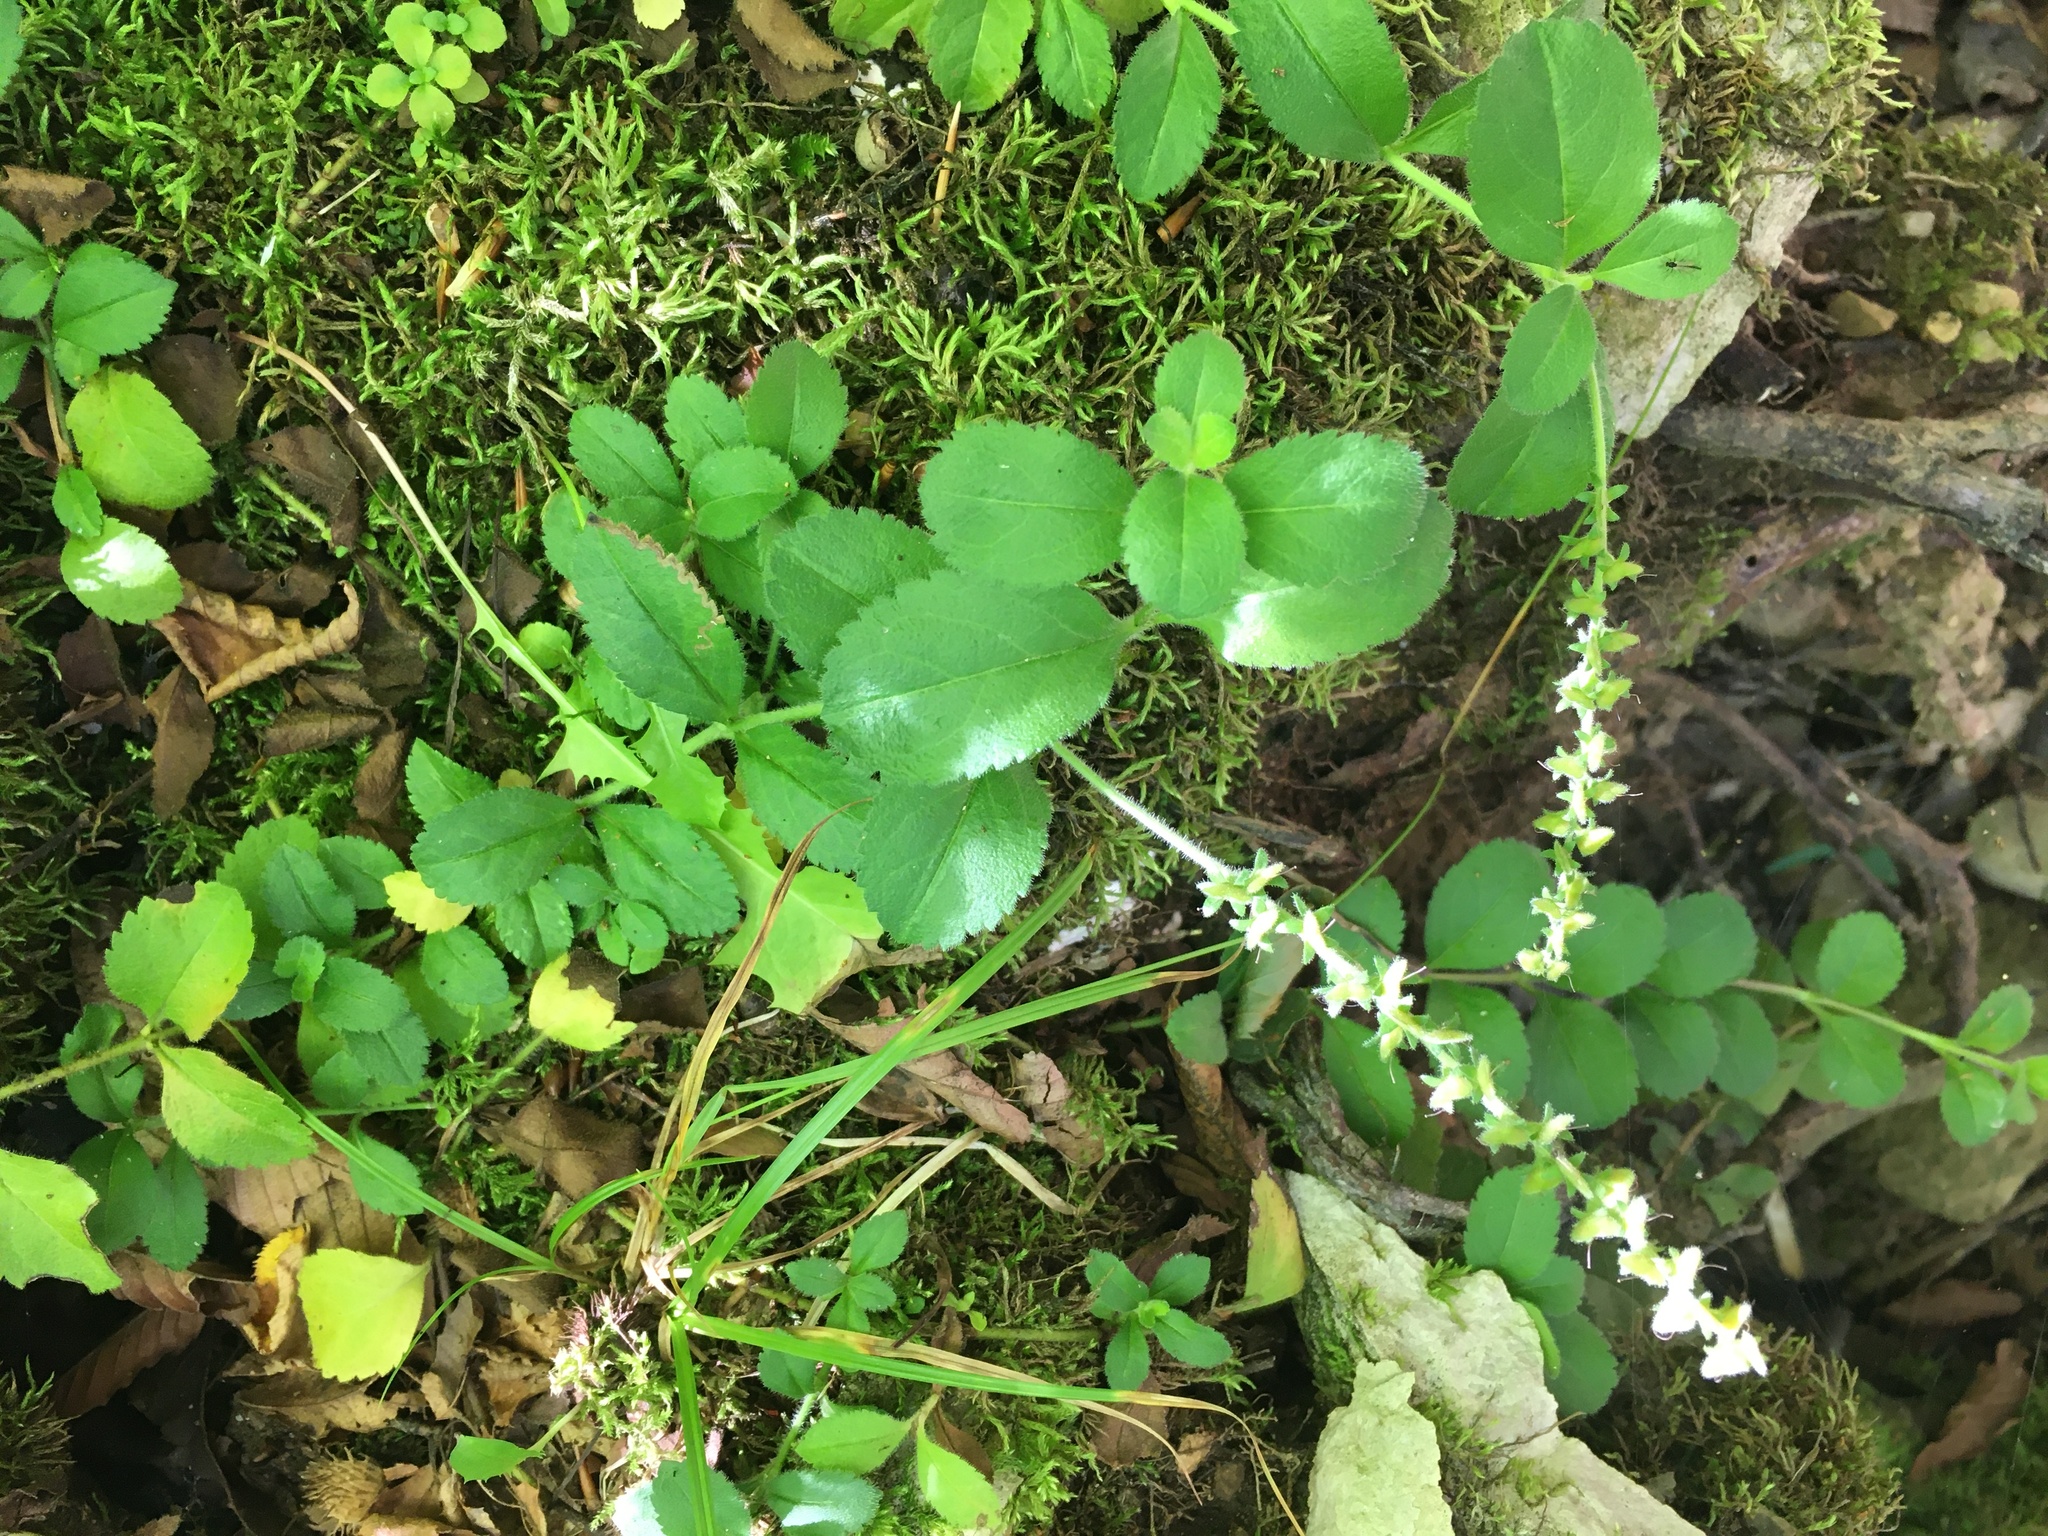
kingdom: Plantae
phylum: Tracheophyta
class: Magnoliopsida
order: Lamiales
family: Plantaginaceae
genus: Veronica
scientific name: Veronica officinalis
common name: Common speedwell
